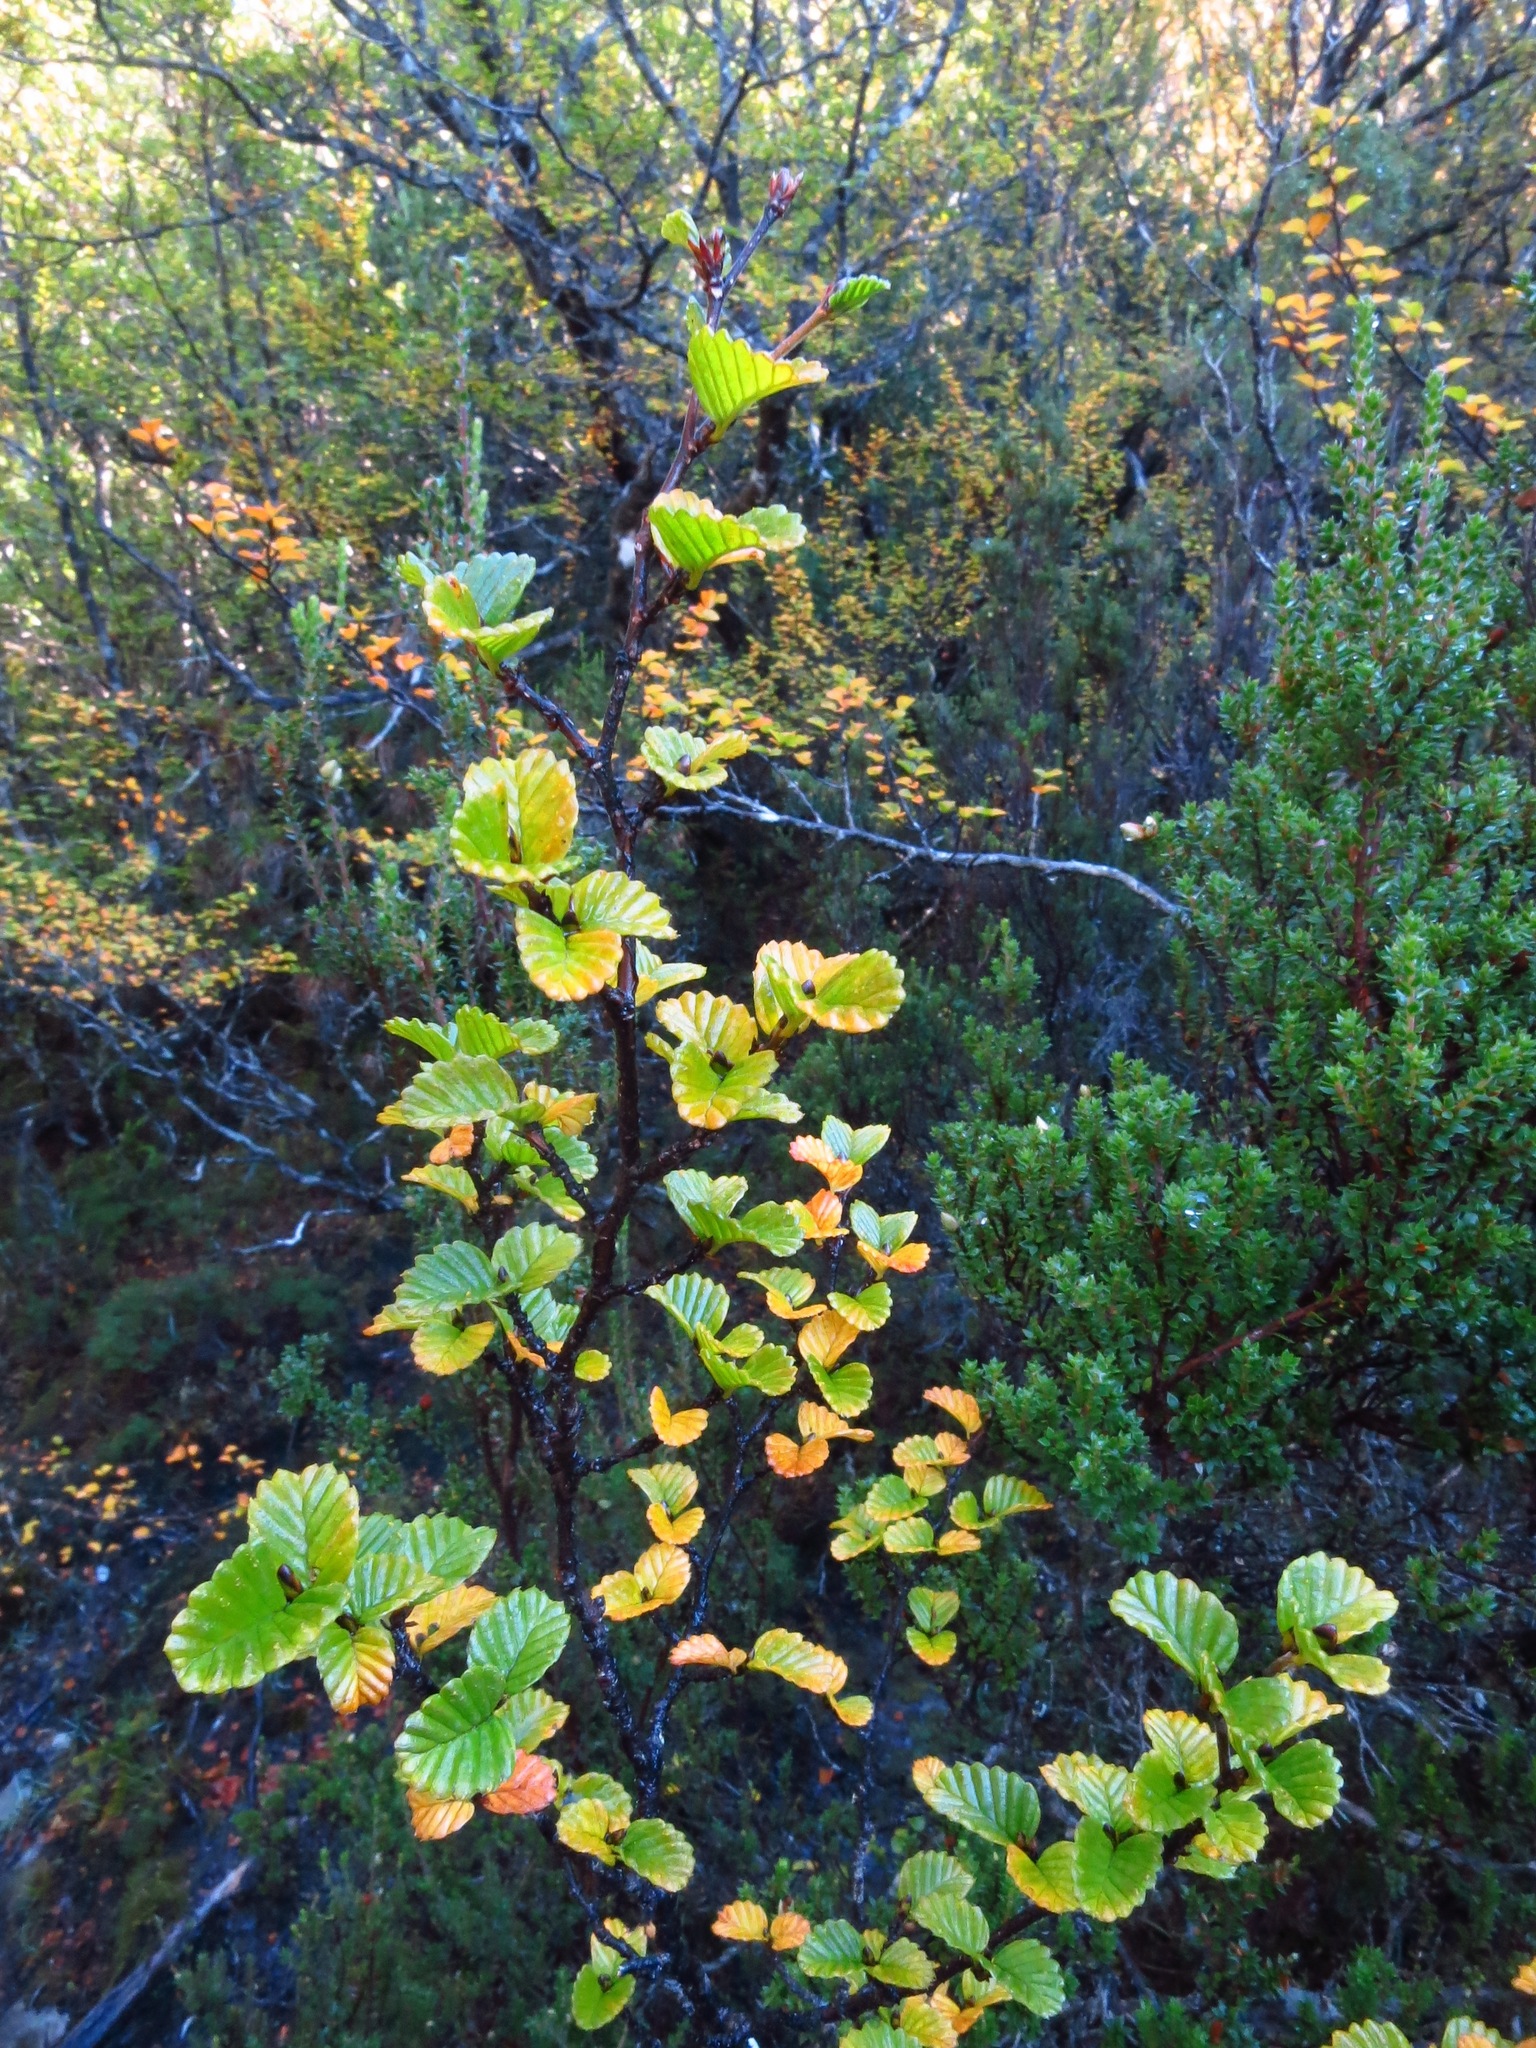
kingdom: Plantae
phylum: Tracheophyta
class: Magnoliopsida
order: Fagales
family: Nothofagaceae
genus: Nothofagus
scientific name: Nothofagus gunnii
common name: Tanglefoot
